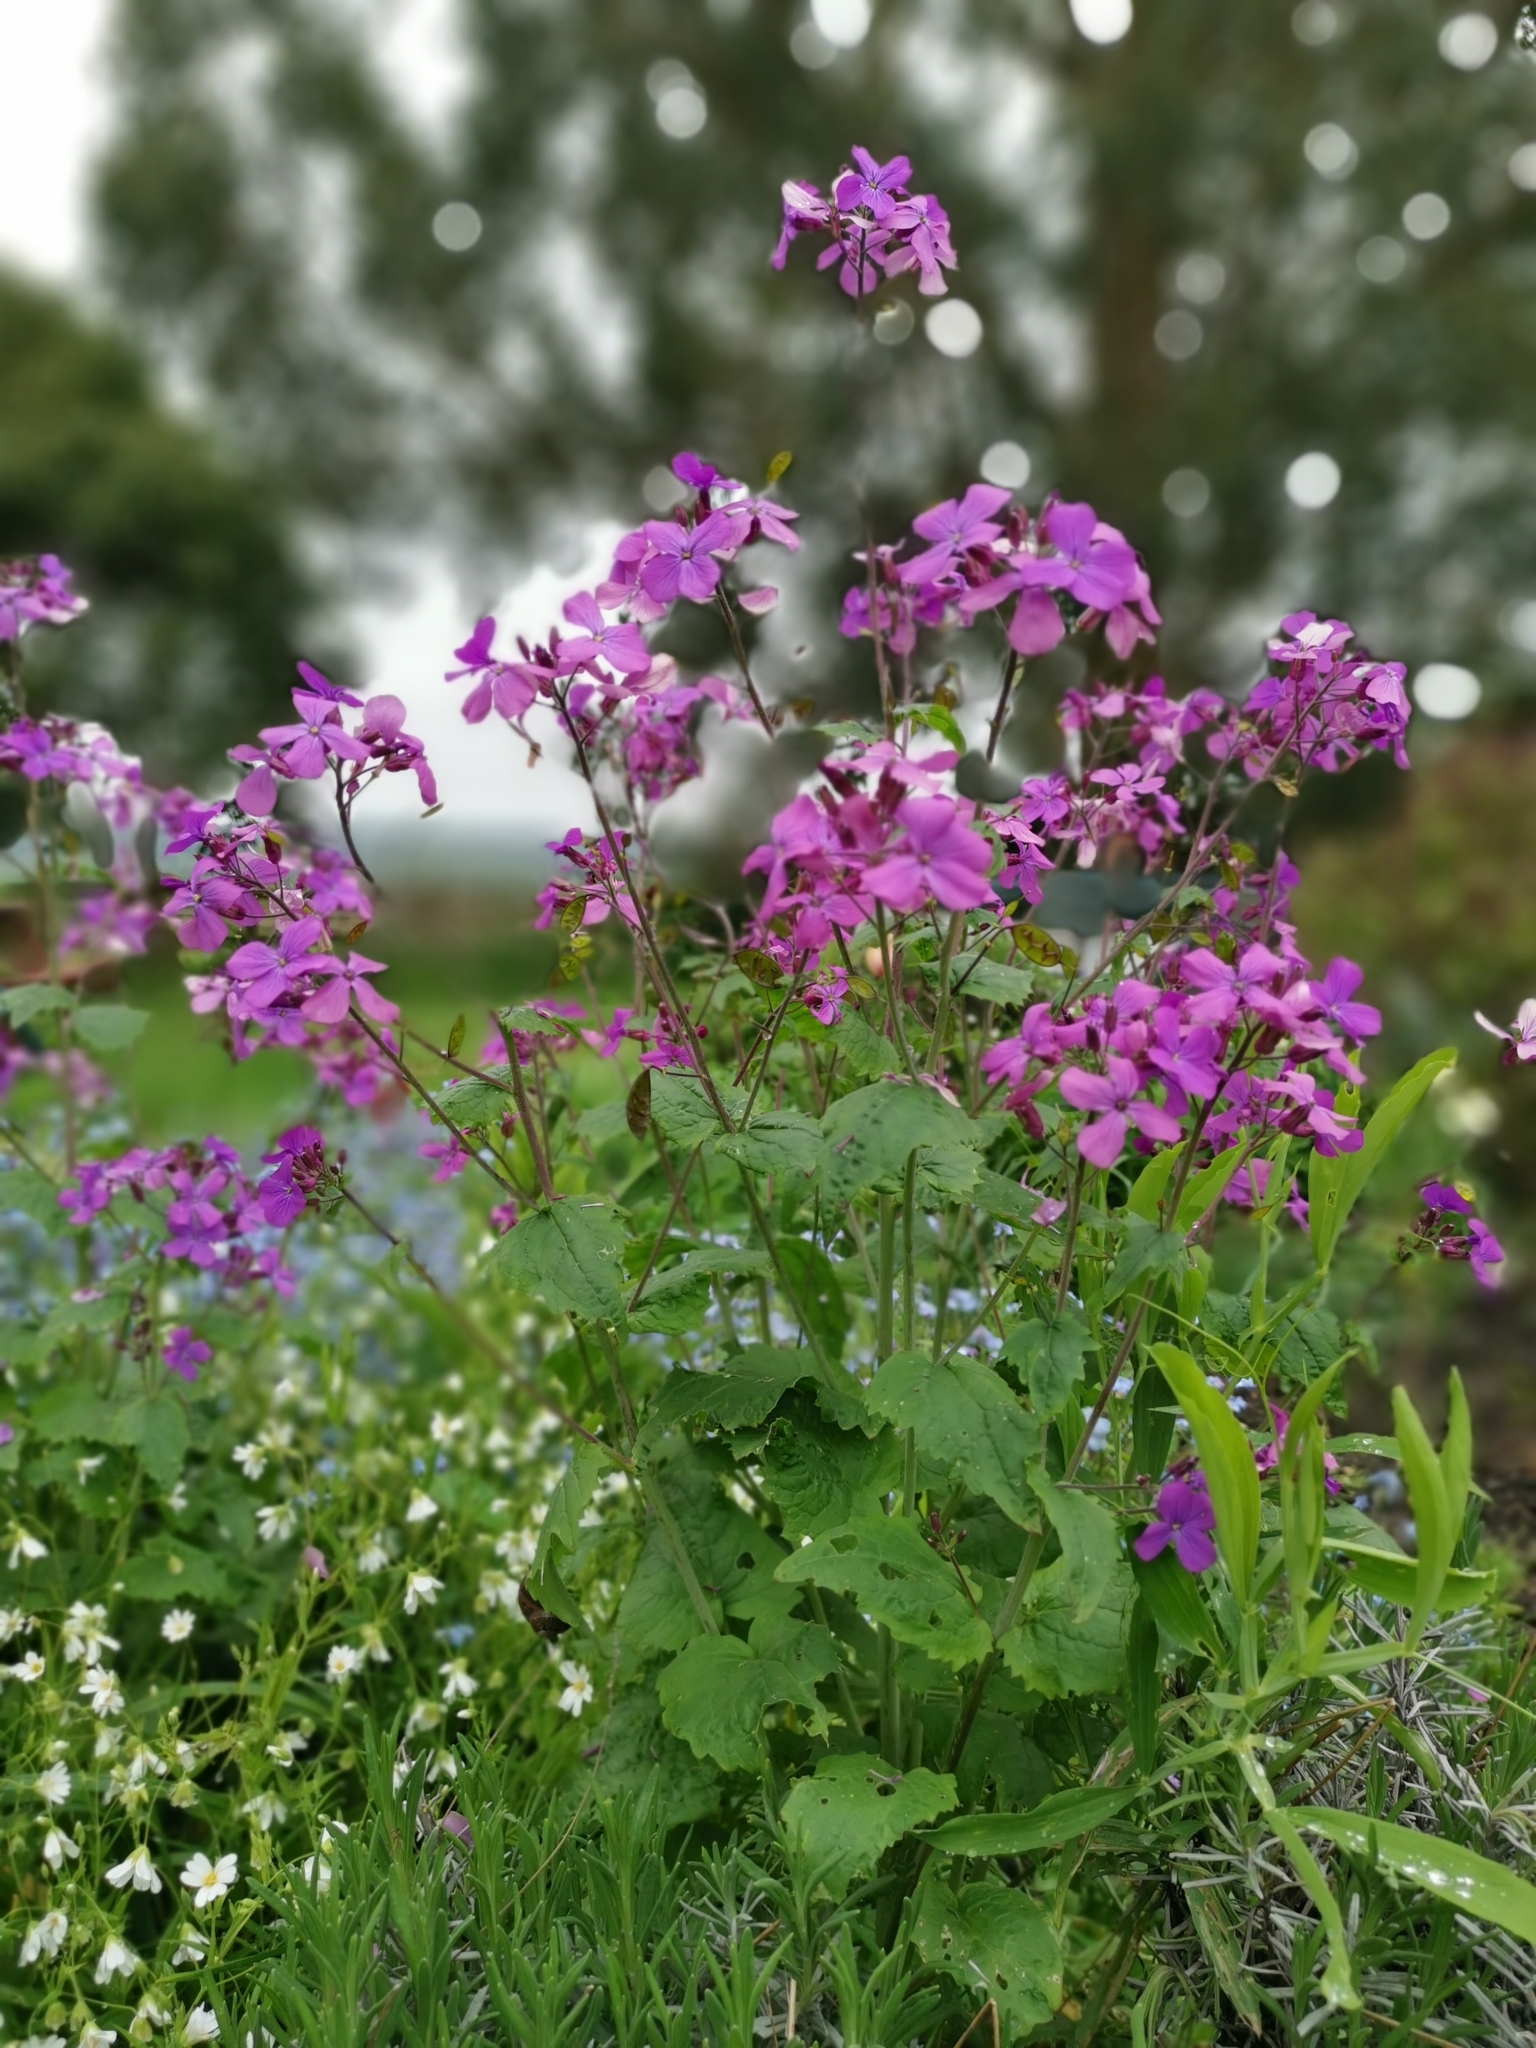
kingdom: Plantae
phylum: Tracheophyta
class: Magnoliopsida
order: Brassicales
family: Brassicaceae
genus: Lunaria
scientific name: Lunaria annua
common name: Honesty
